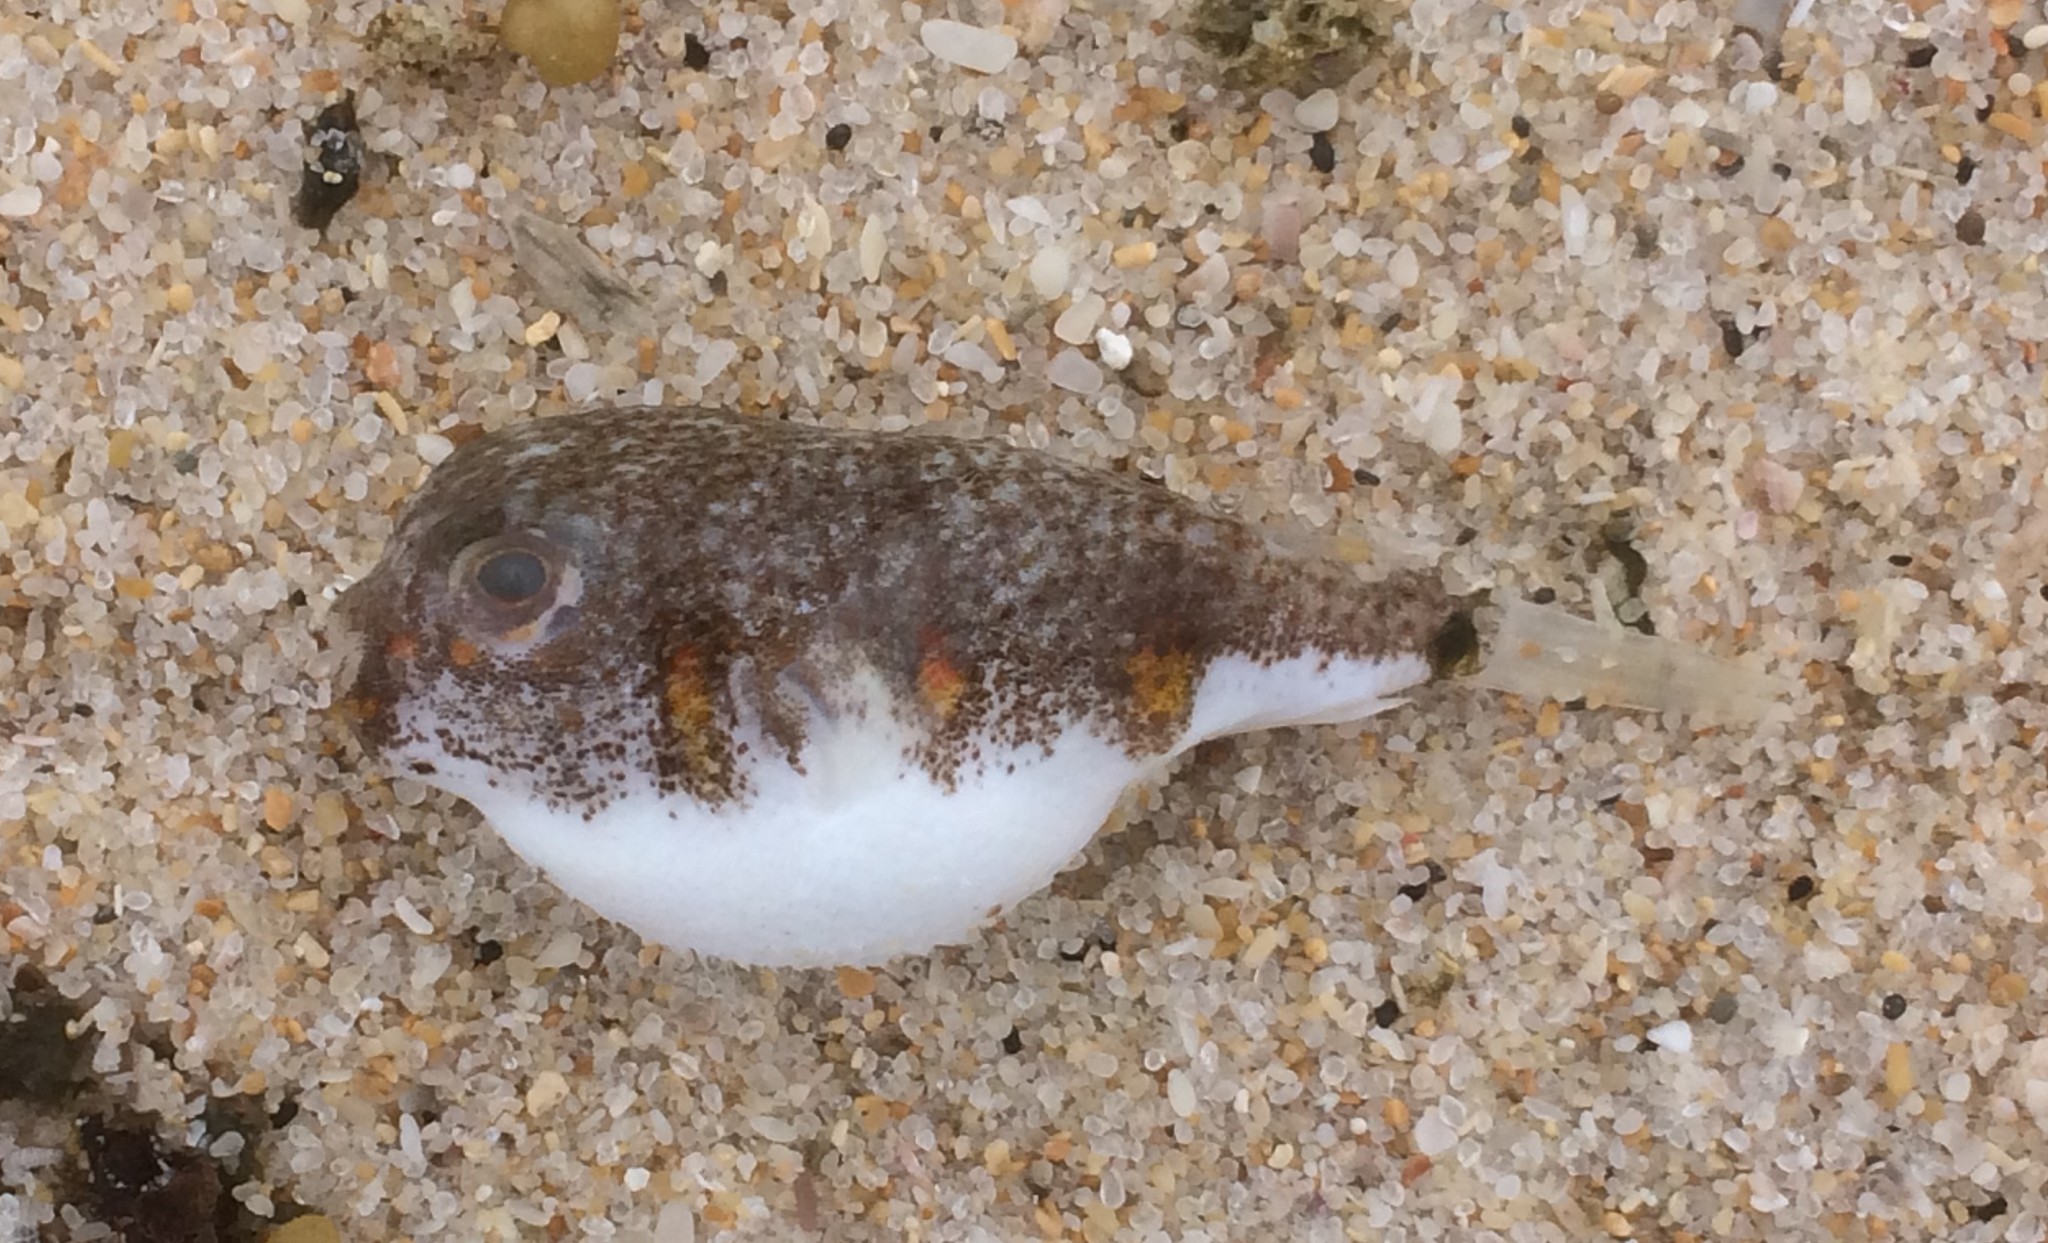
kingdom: Animalia
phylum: Chordata
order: Tetraodontiformes
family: Tetraodontidae
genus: Polyspina
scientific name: Polyspina piosae
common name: Orange-barred pufferfish
